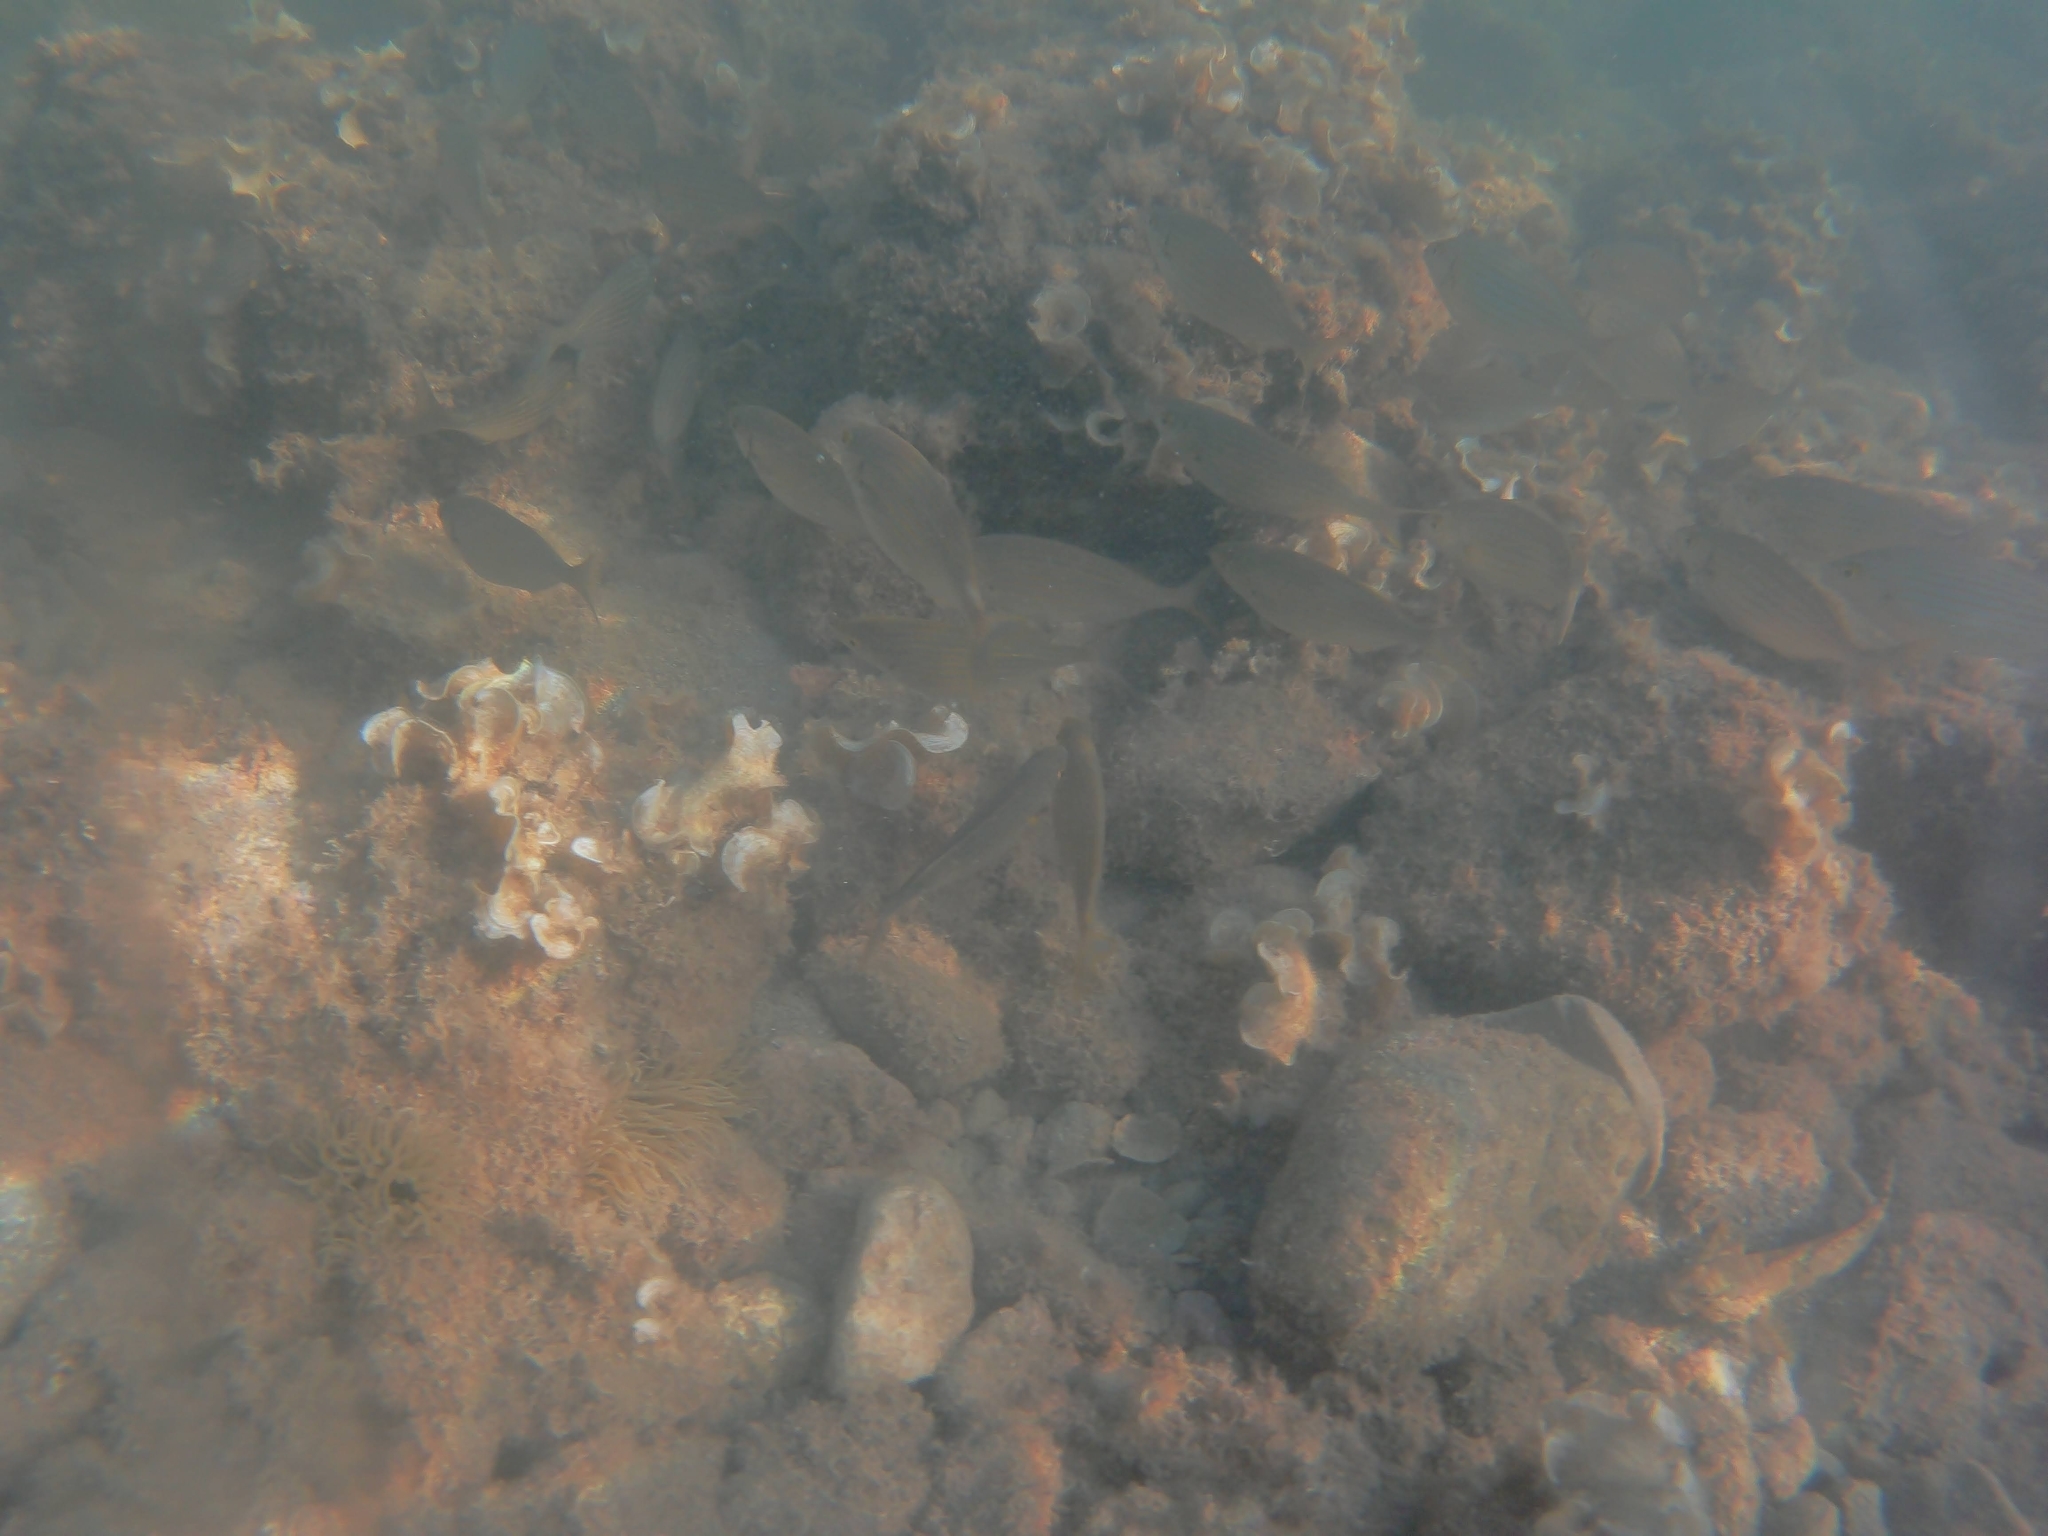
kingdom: Animalia
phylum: Chordata
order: Perciformes
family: Sparidae
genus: Sarpa
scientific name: Sarpa salpa
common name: Salema
